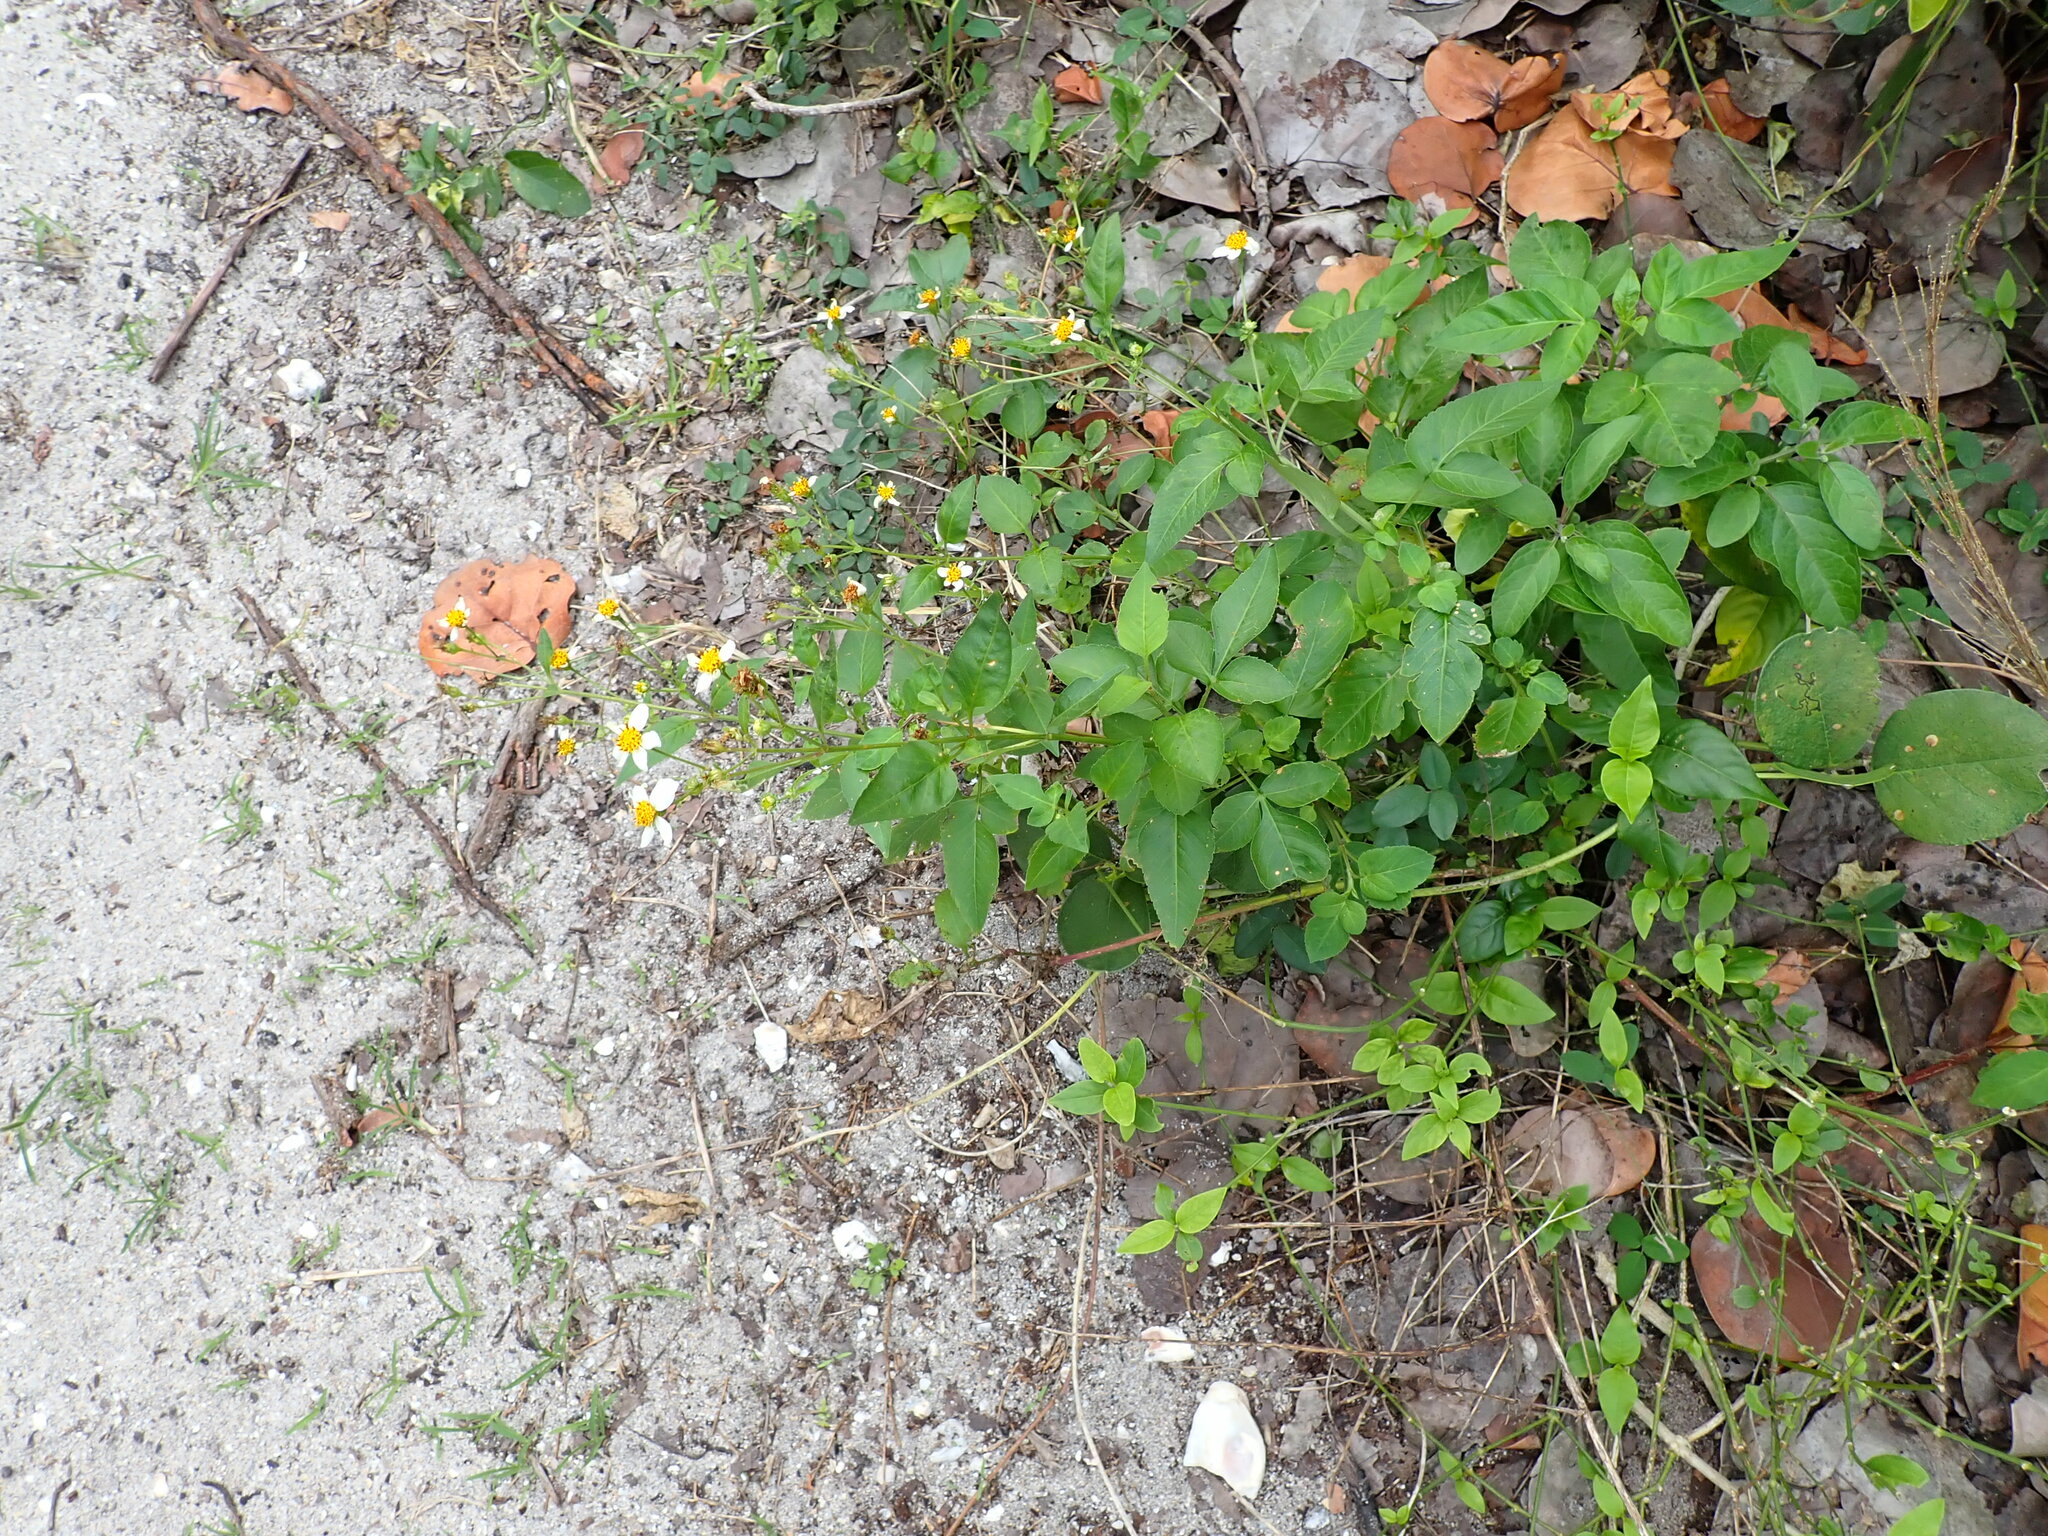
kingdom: Plantae
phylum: Tracheophyta
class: Magnoliopsida
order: Asterales
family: Asteraceae
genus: Bidens
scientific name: Bidens alba
